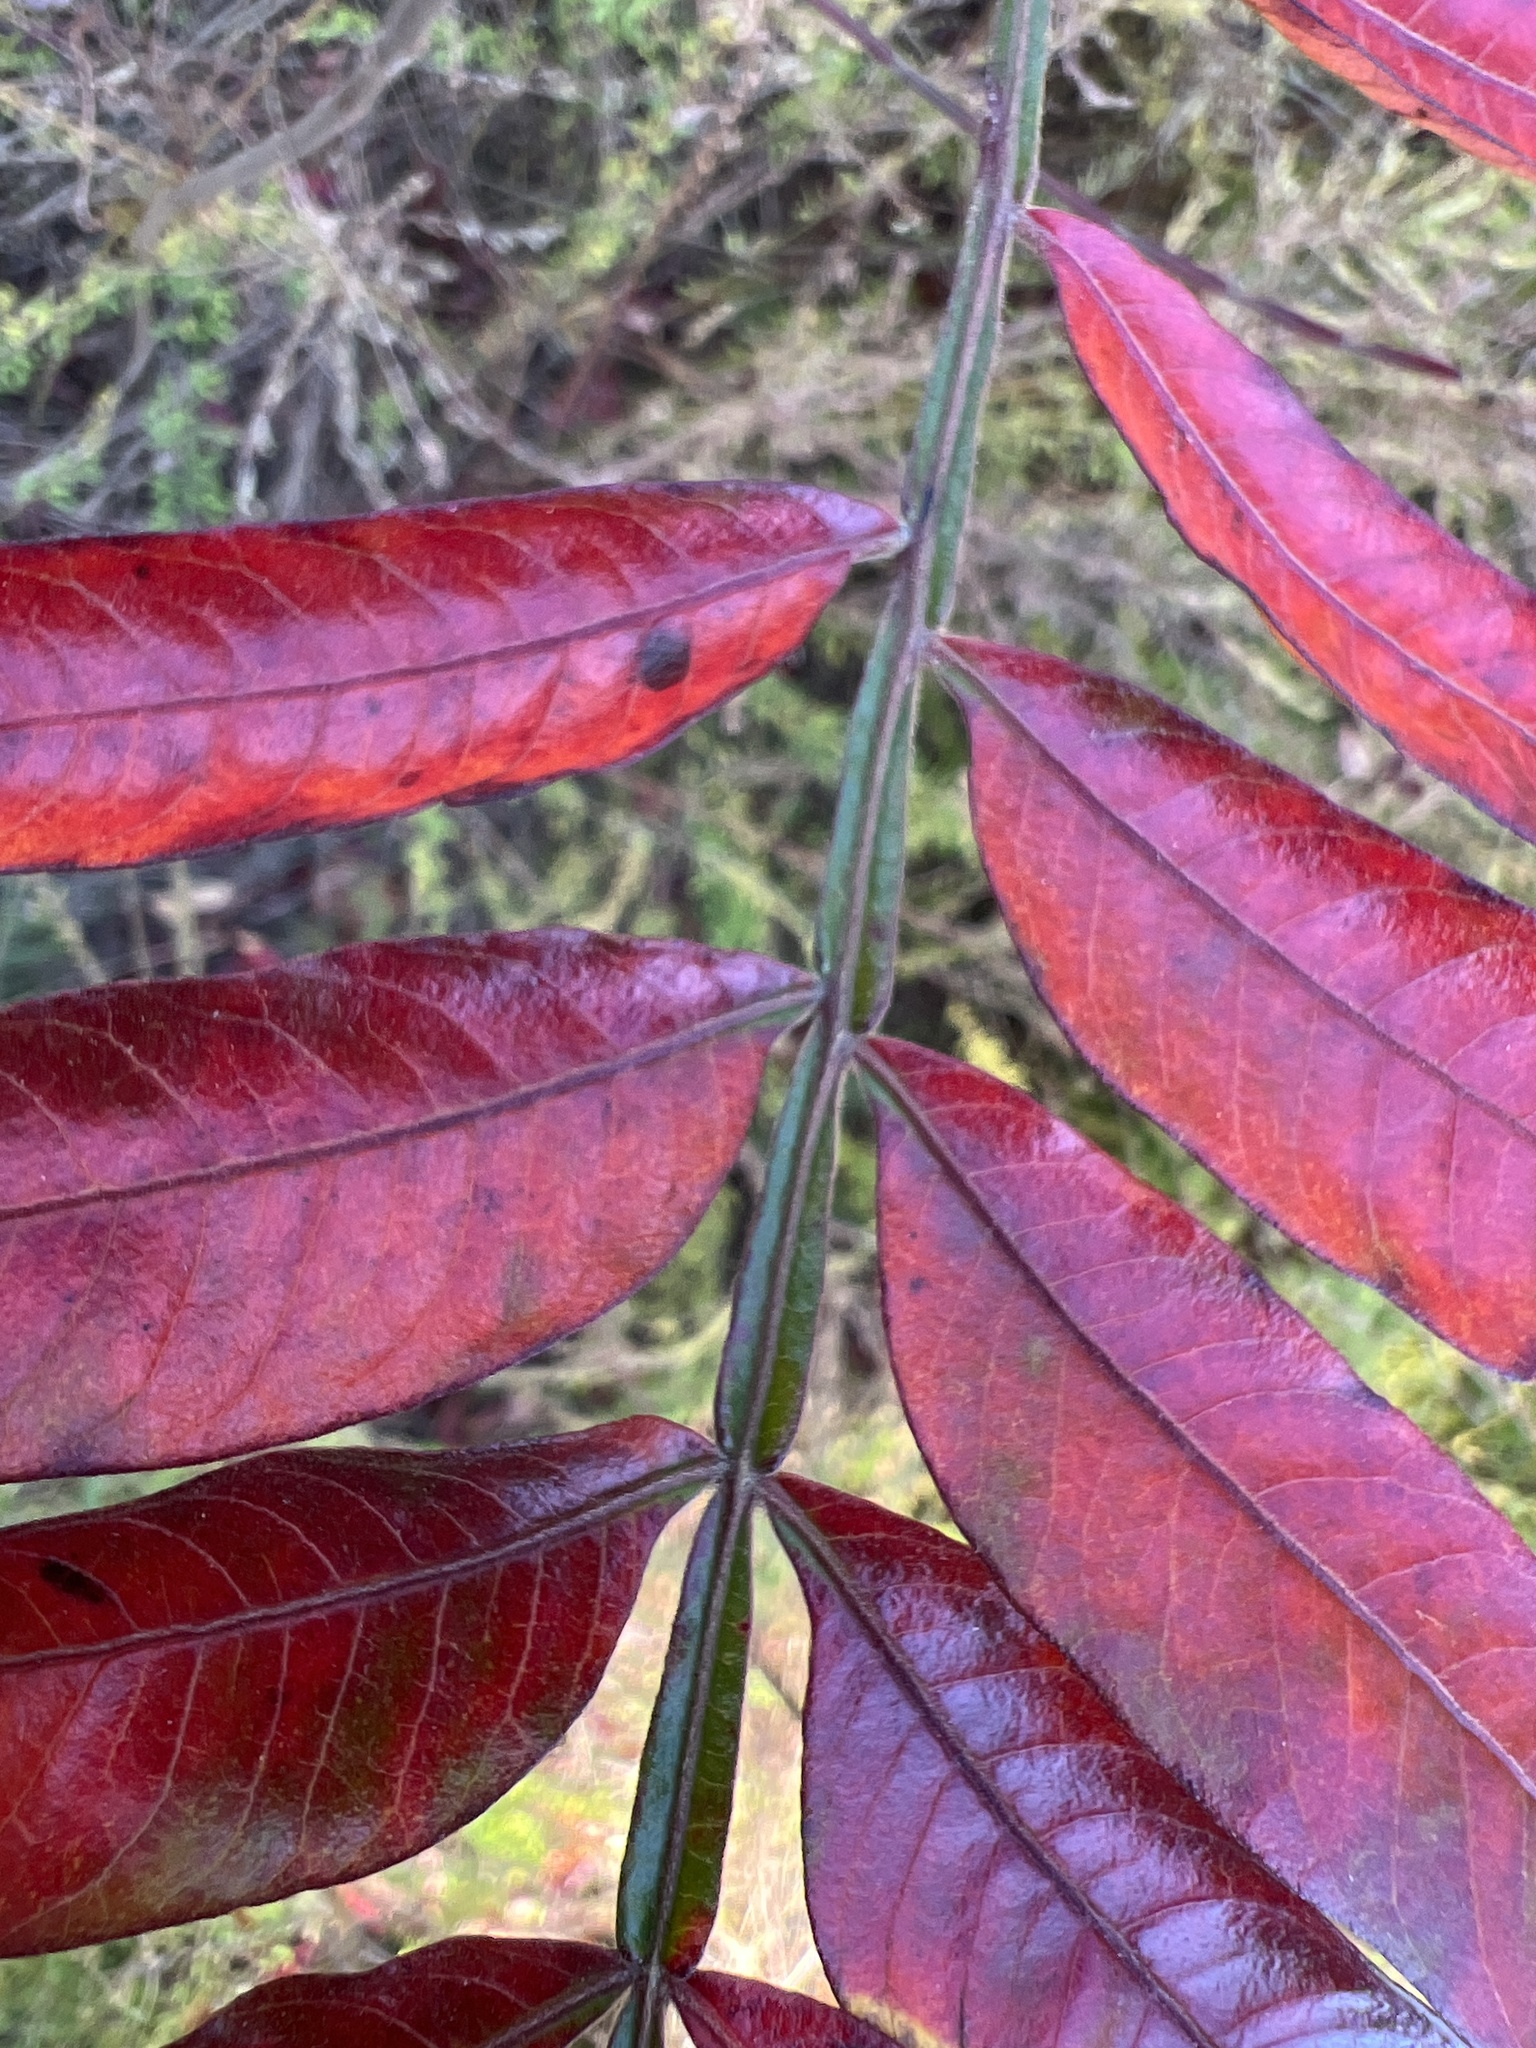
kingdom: Plantae
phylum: Tracheophyta
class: Magnoliopsida
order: Sapindales
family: Anacardiaceae
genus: Rhus
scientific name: Rhus copallina
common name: Shining sumac
